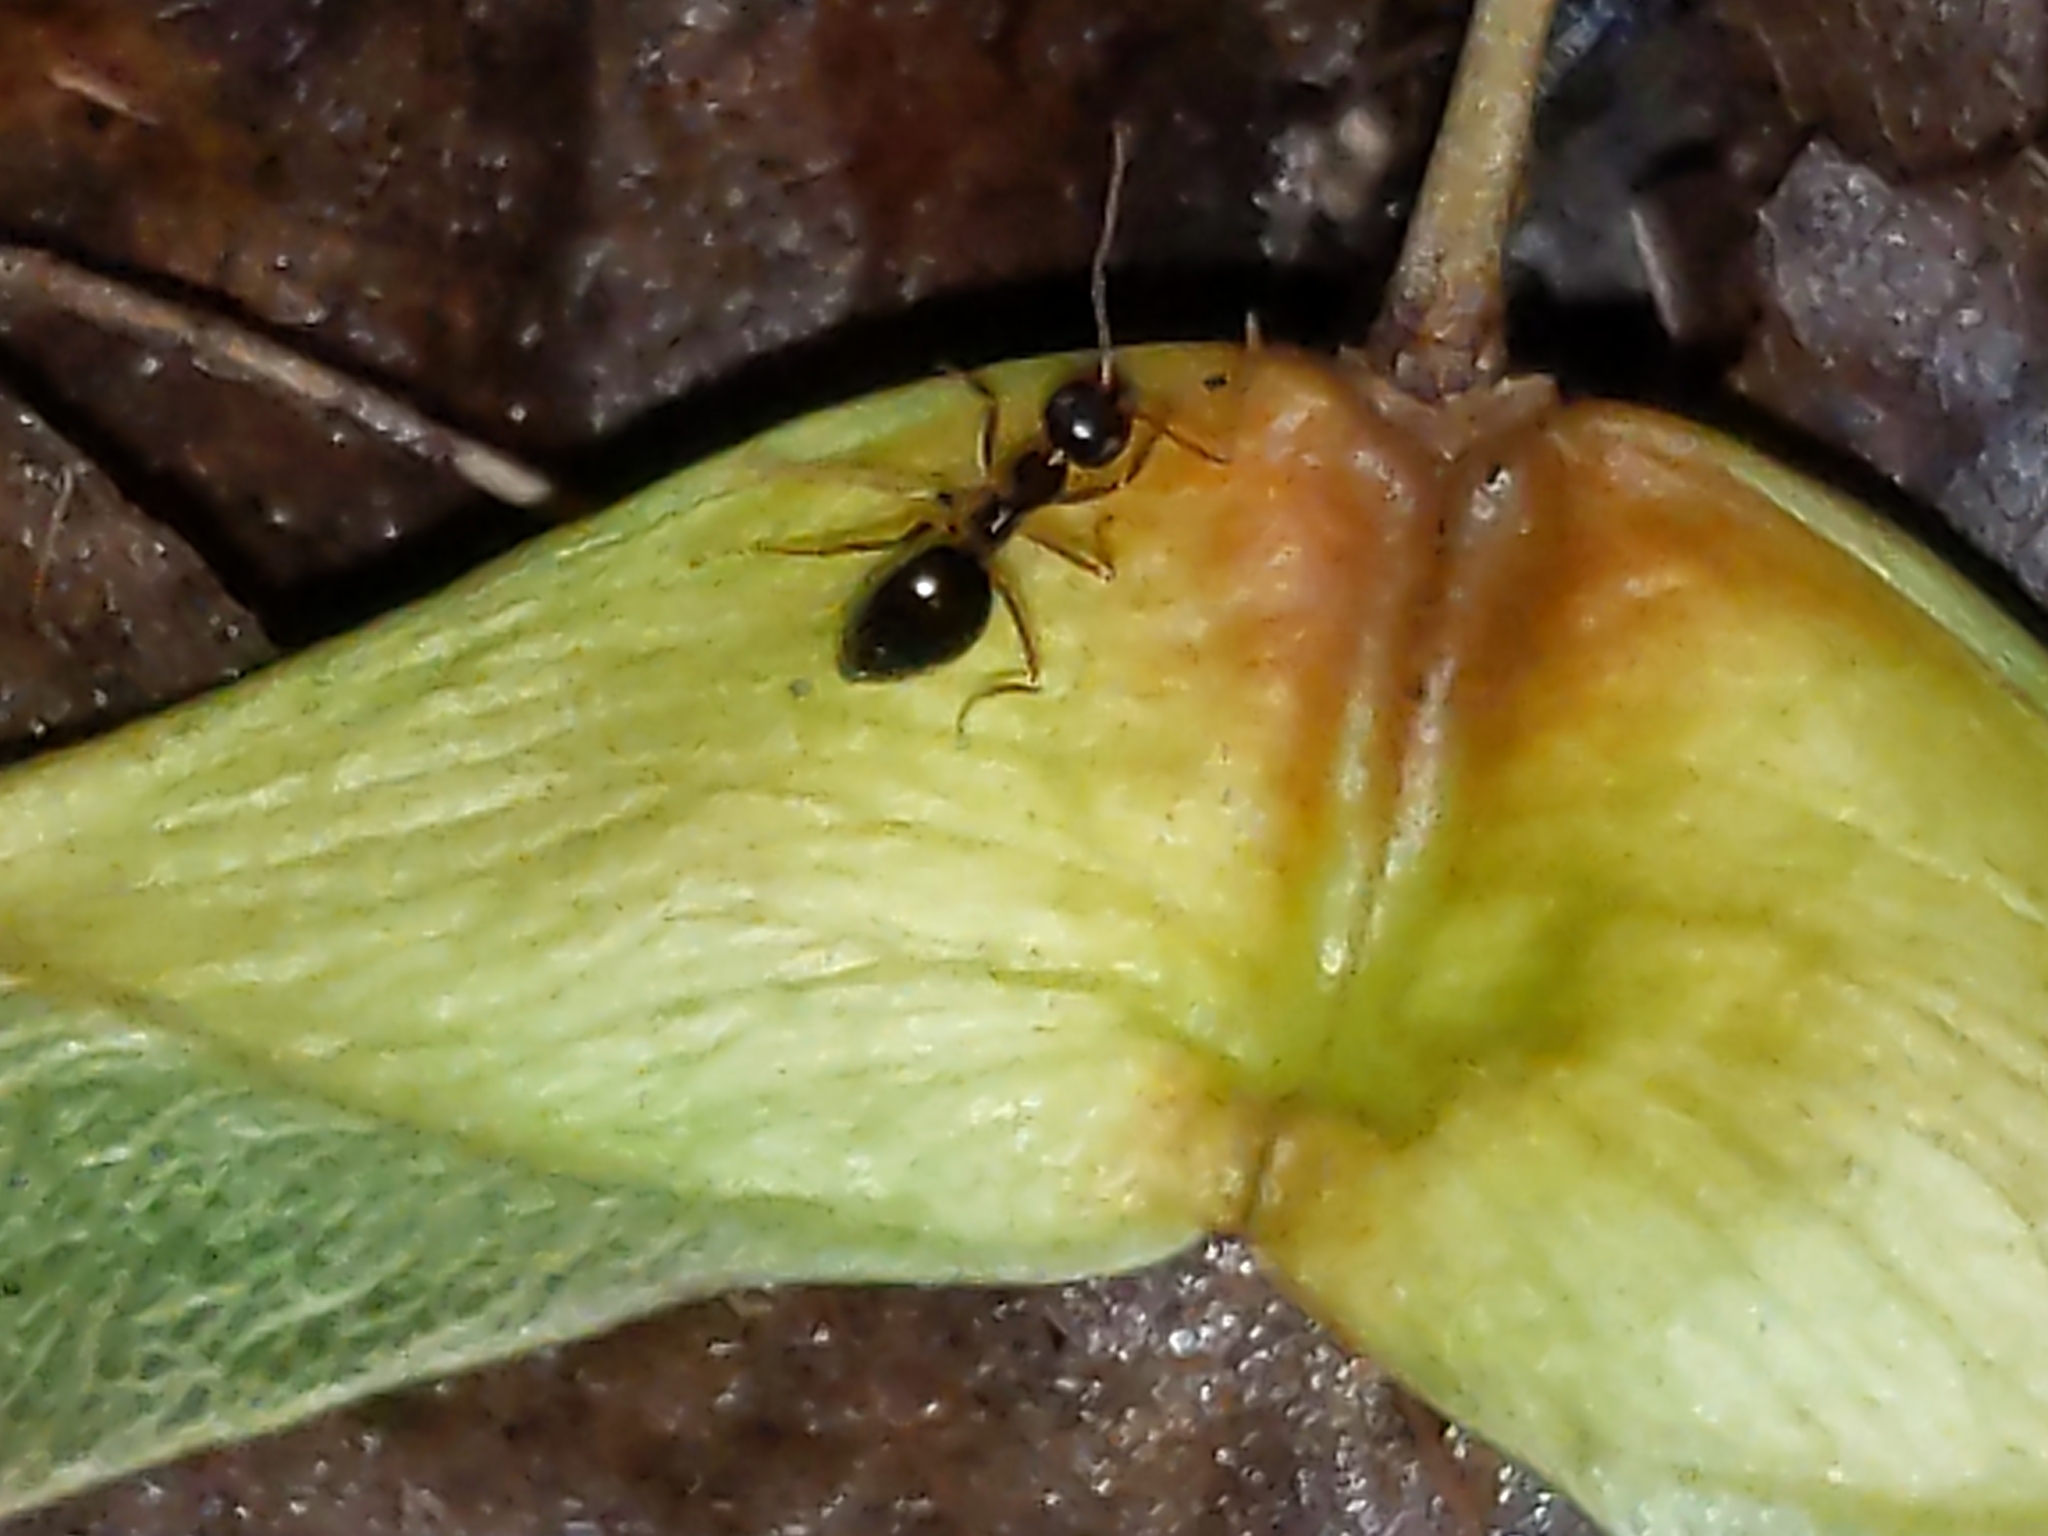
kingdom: Animalia
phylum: Arthropoda
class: Insecta
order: Hymenoptera
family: Formicidae
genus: Prenolepis
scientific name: Prenolepis imparis
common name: Small honey ant
